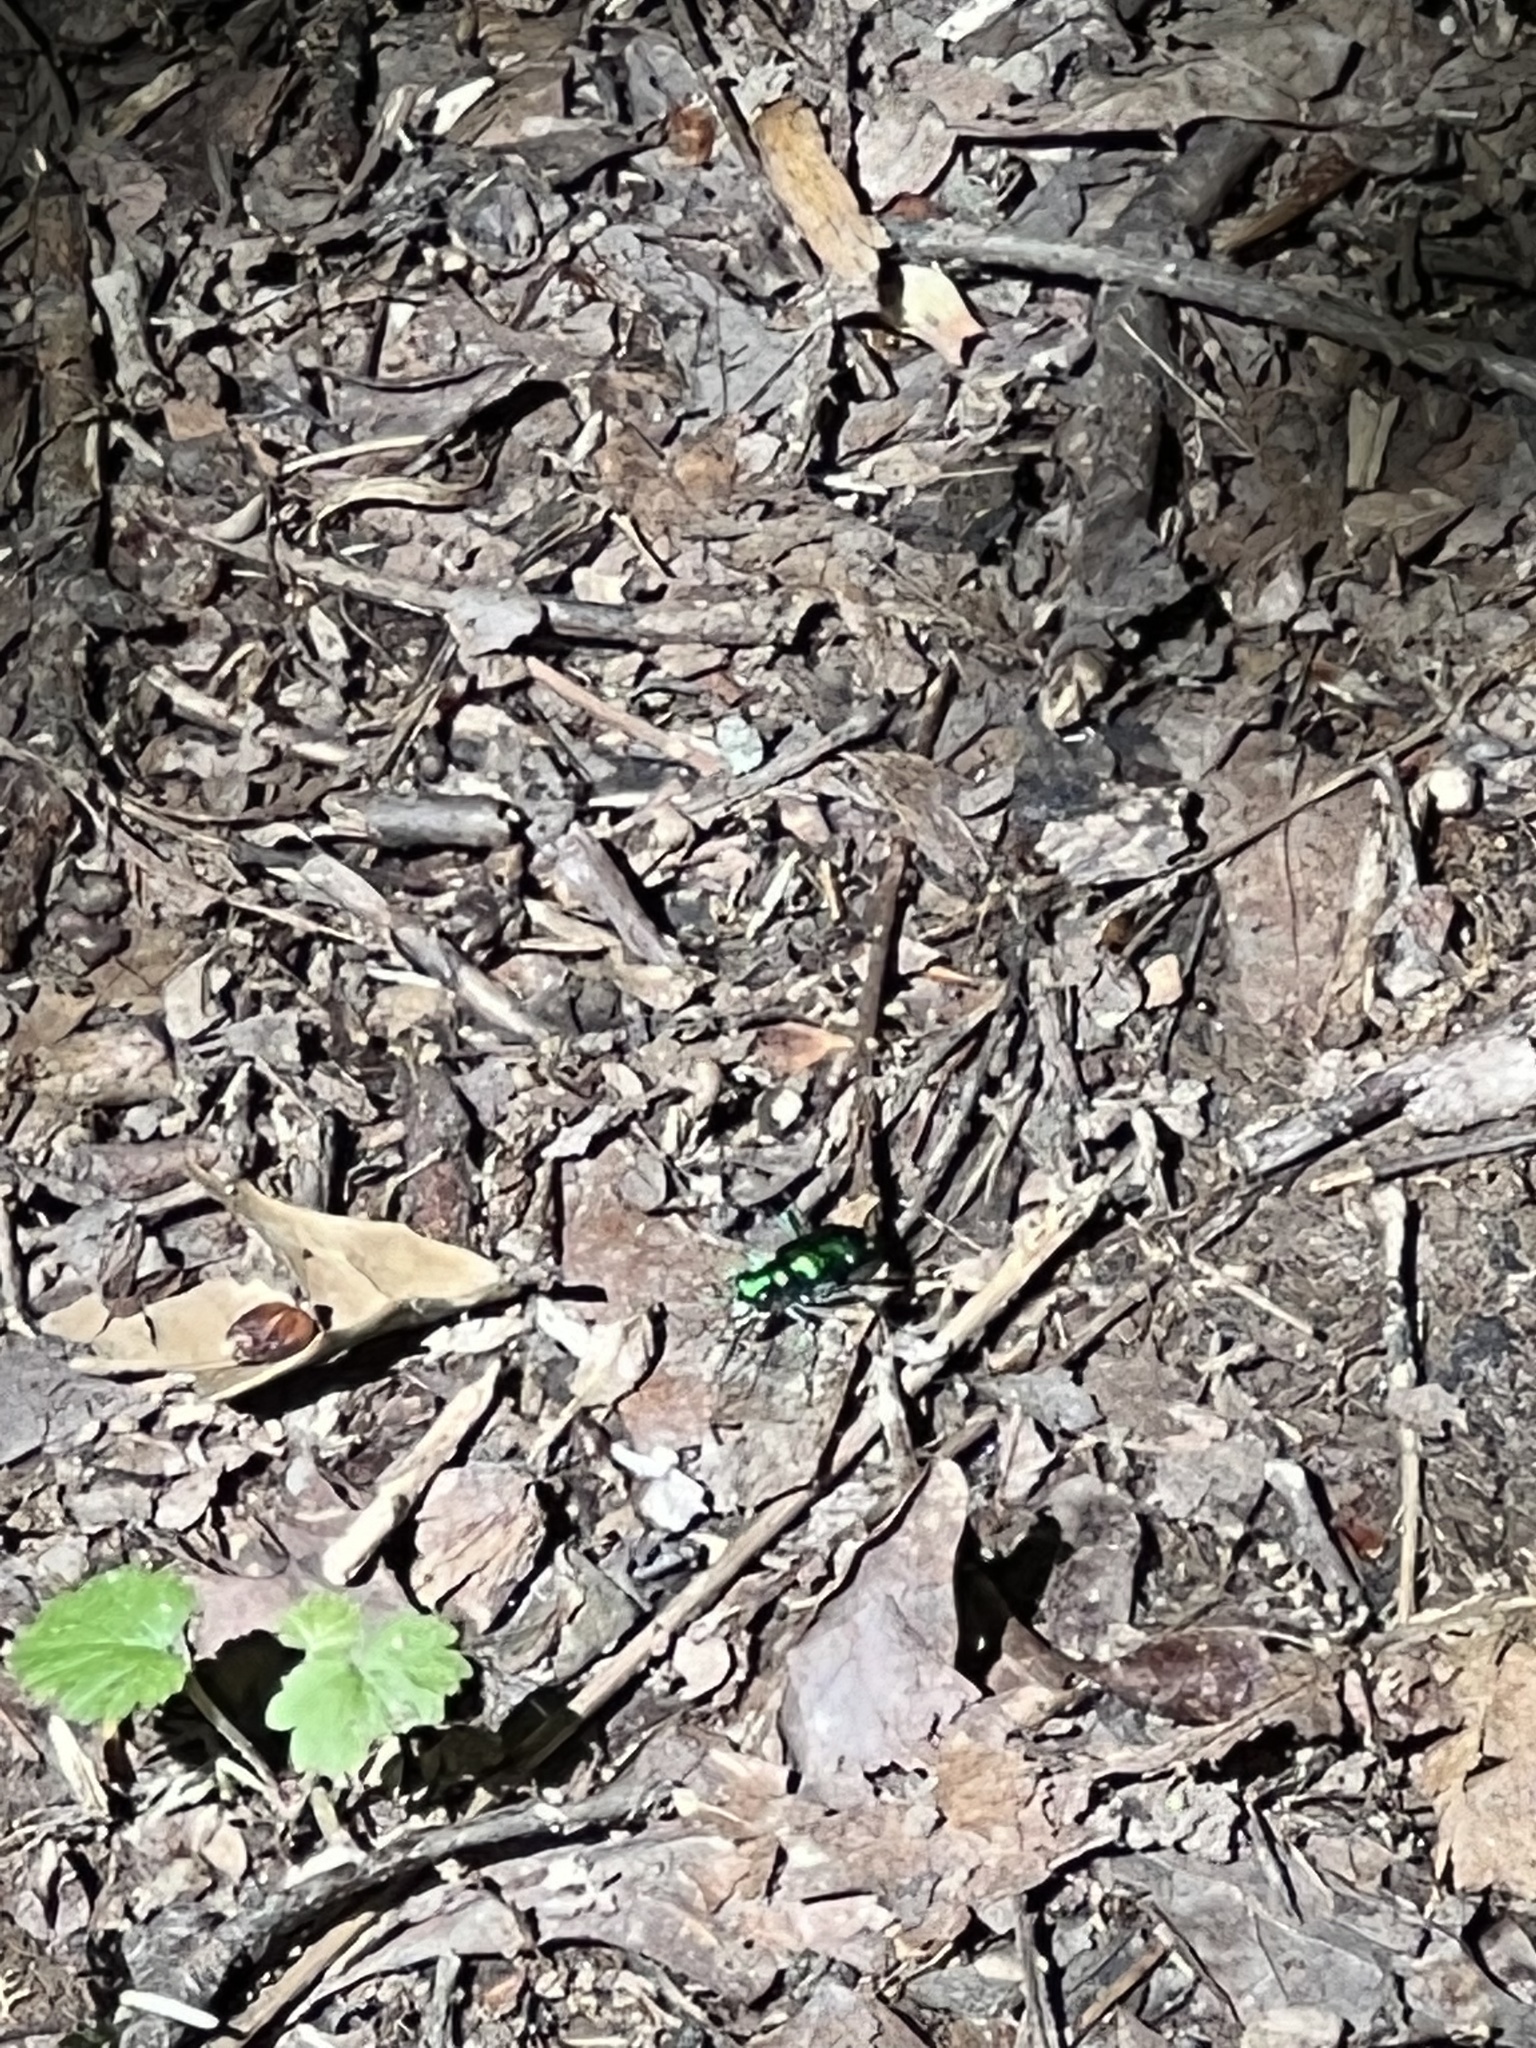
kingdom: Animalia
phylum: Arthropoda
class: Insecta
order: Coleoptera
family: Carabidae
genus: Cicindela
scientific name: Cicindela sexguttata
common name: Six-spotted tiger beetle
